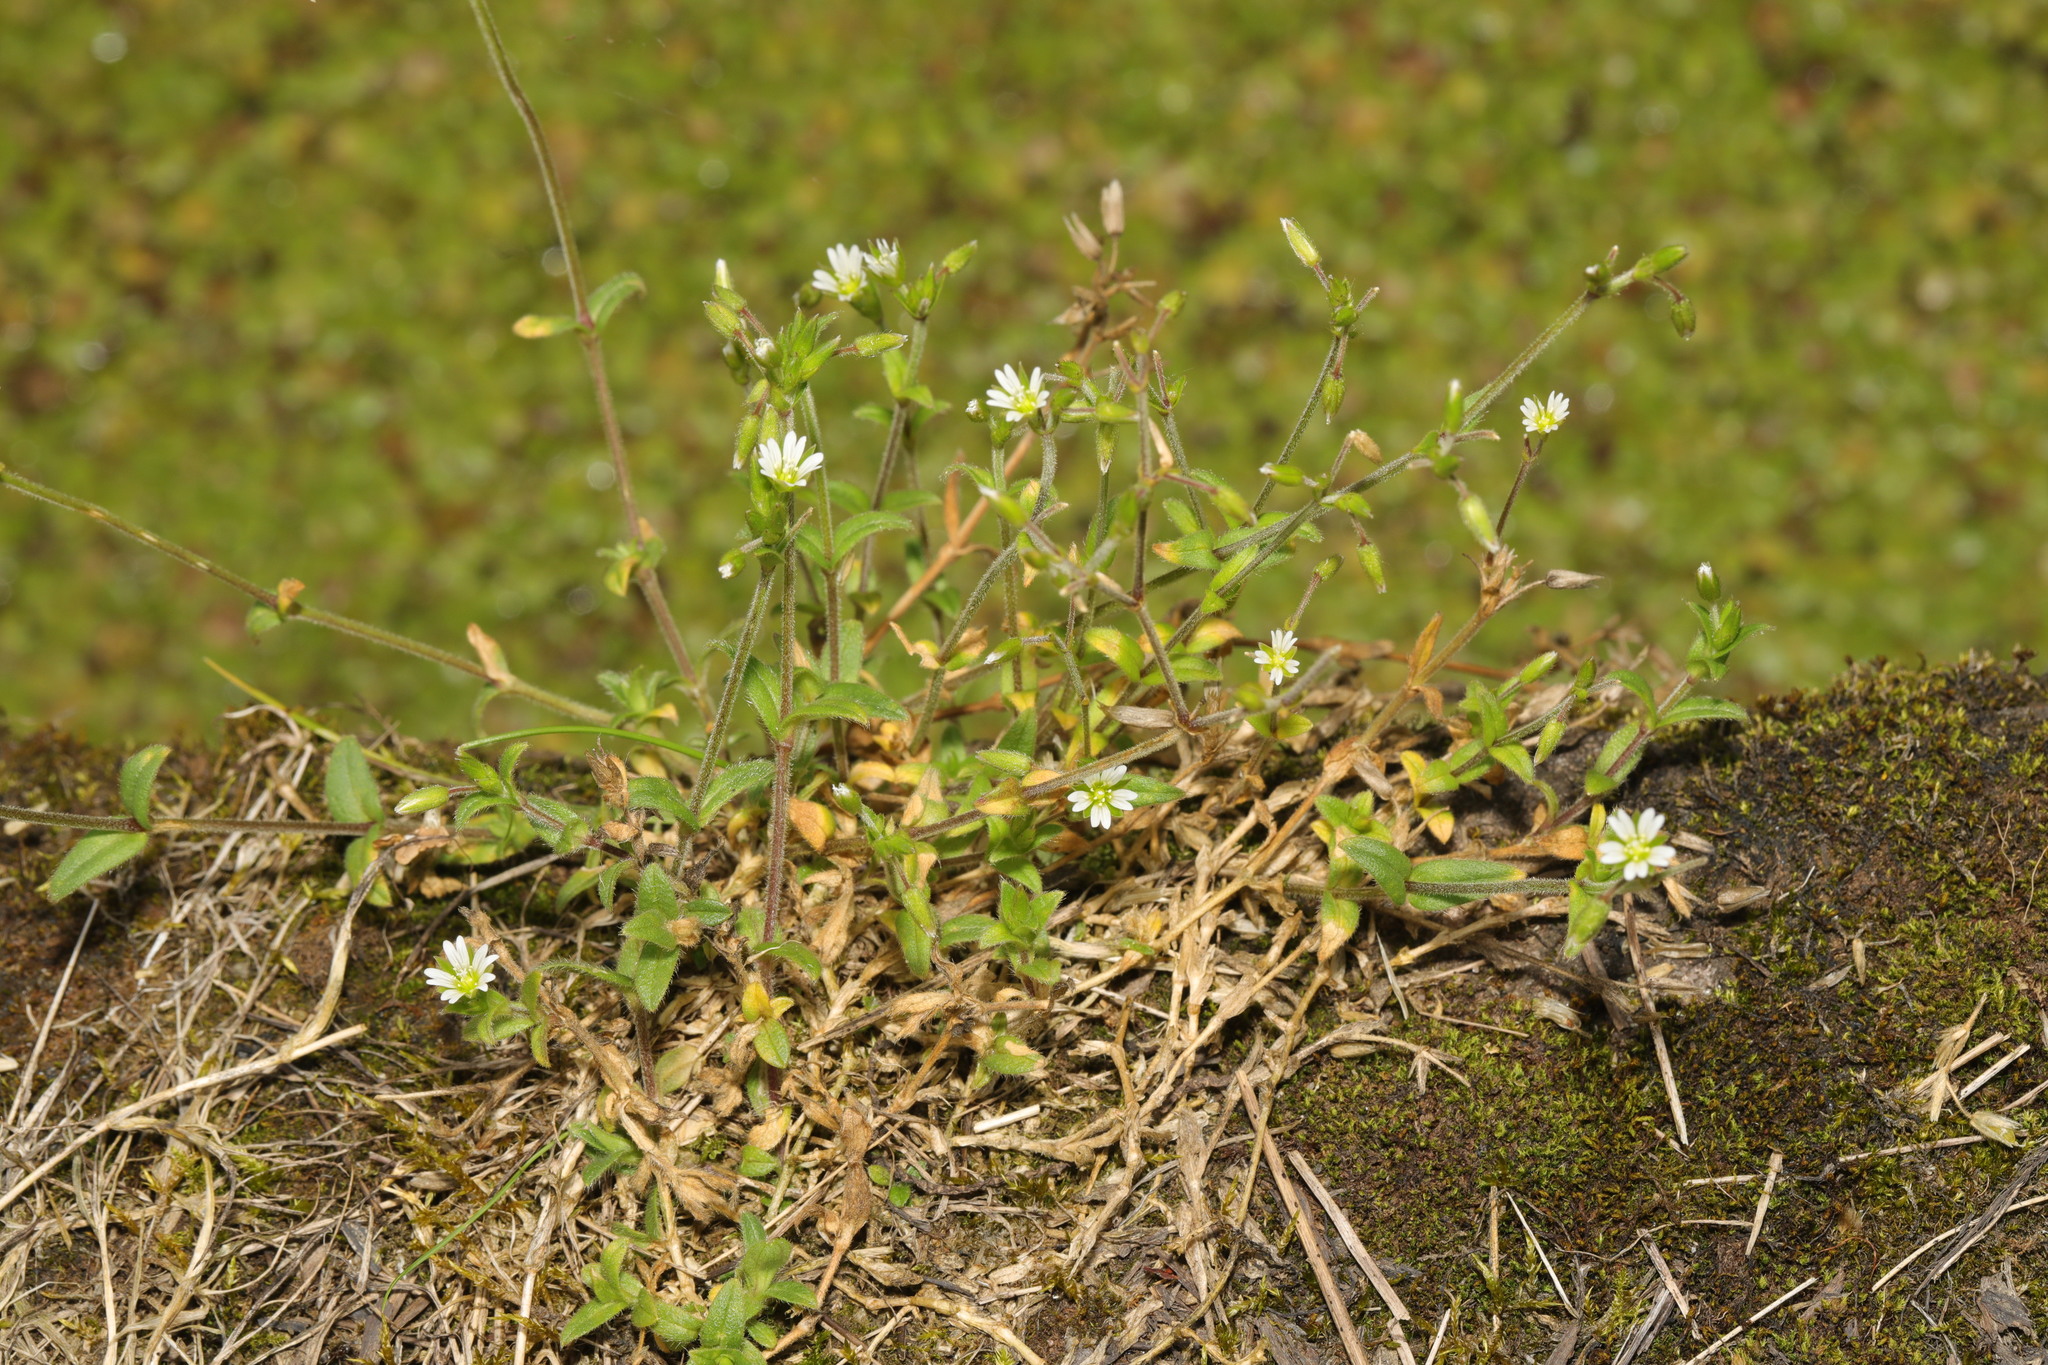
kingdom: Plantae
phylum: Tracheophyta
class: Magnoliopsida
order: Caryophyllales
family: Caryophyllaceae
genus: Cerastium
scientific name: Cerastium fontanum
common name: Common mouse-ear
